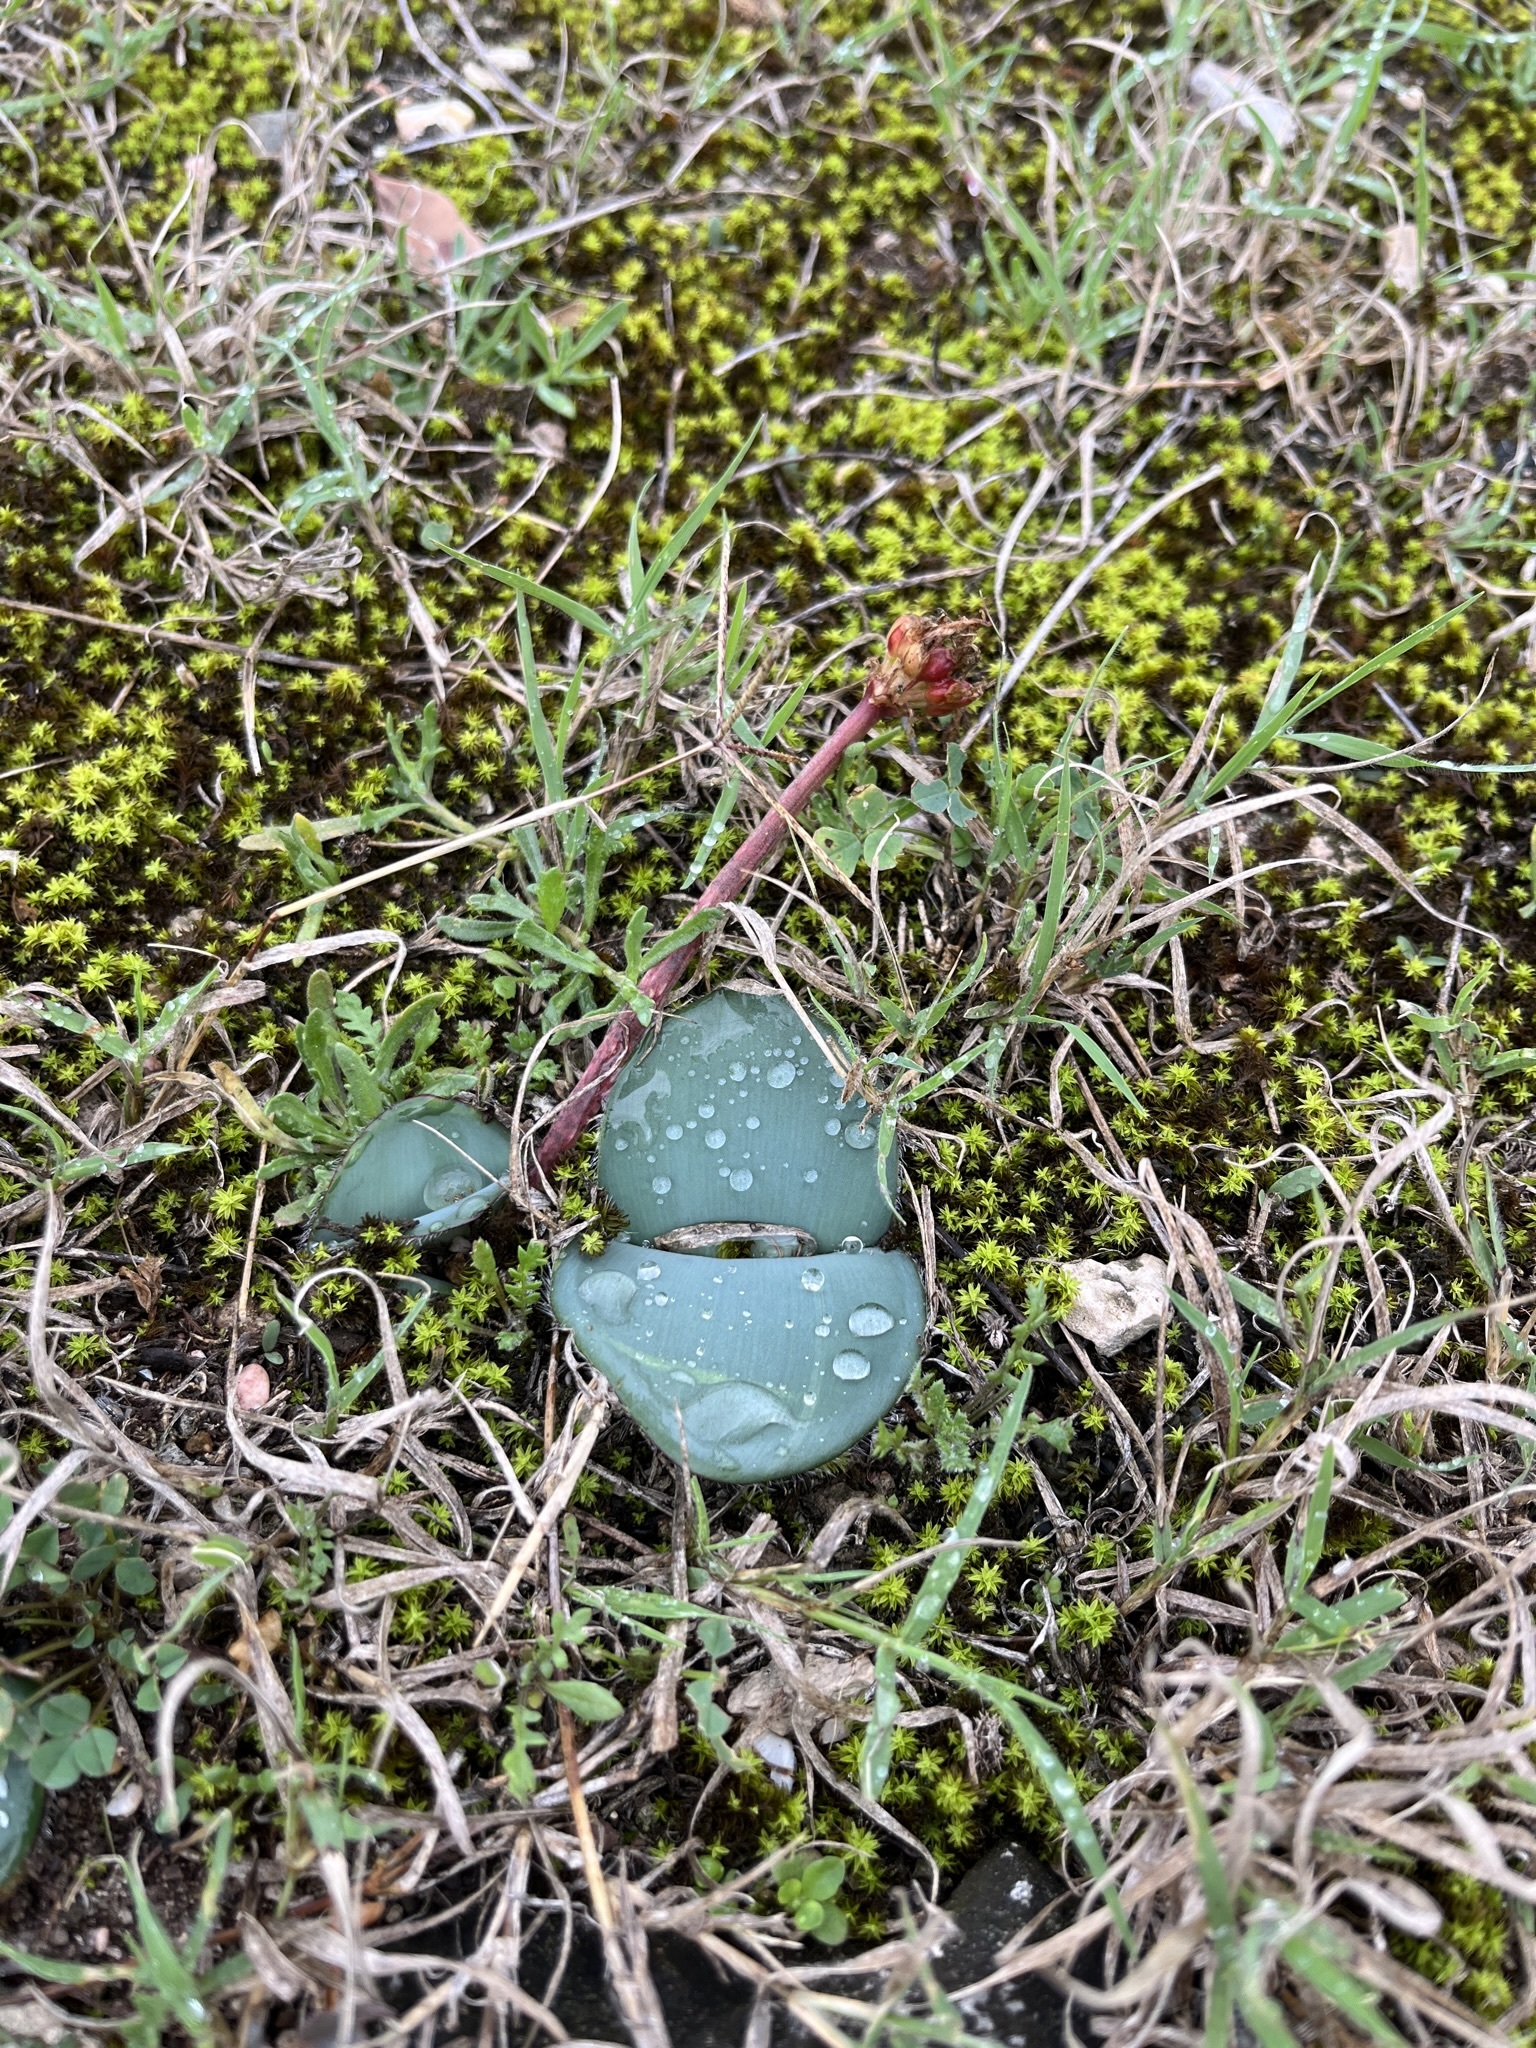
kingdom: Plantae
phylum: Tracheophyta
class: Liliopsida
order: Asparagales
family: Amaryllidaceae
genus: Haemanthus
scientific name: Haemanthus coccineus
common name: Cape-tulip
